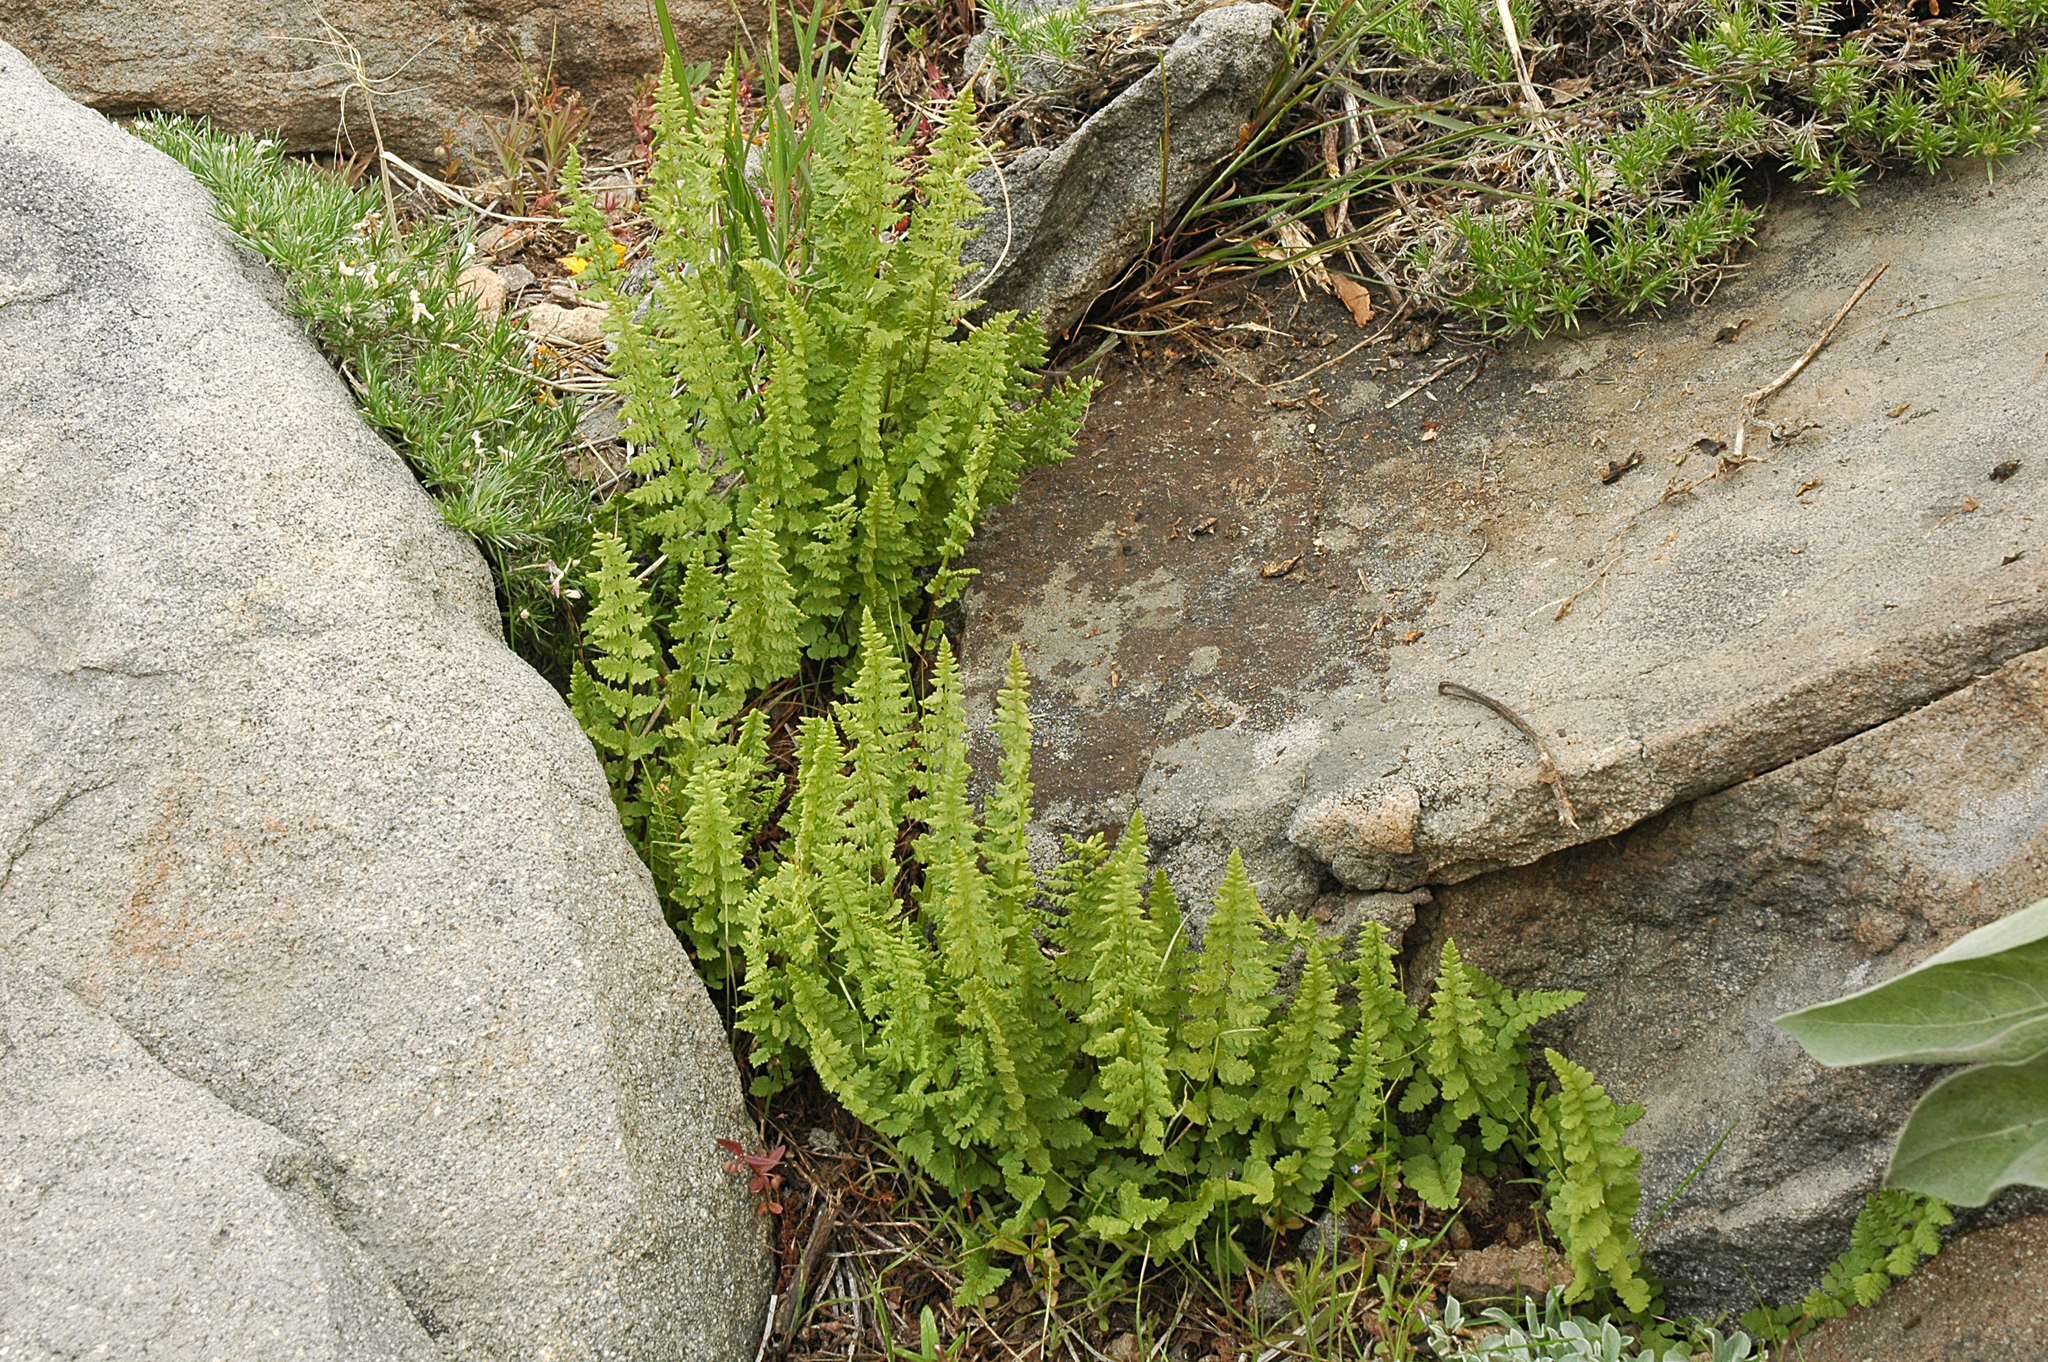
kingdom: Plantae
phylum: Tracheophyta
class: Polypodiopsida
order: Polypodiales
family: Woodsiaceae
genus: Physematium
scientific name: Physematium scopulinum
